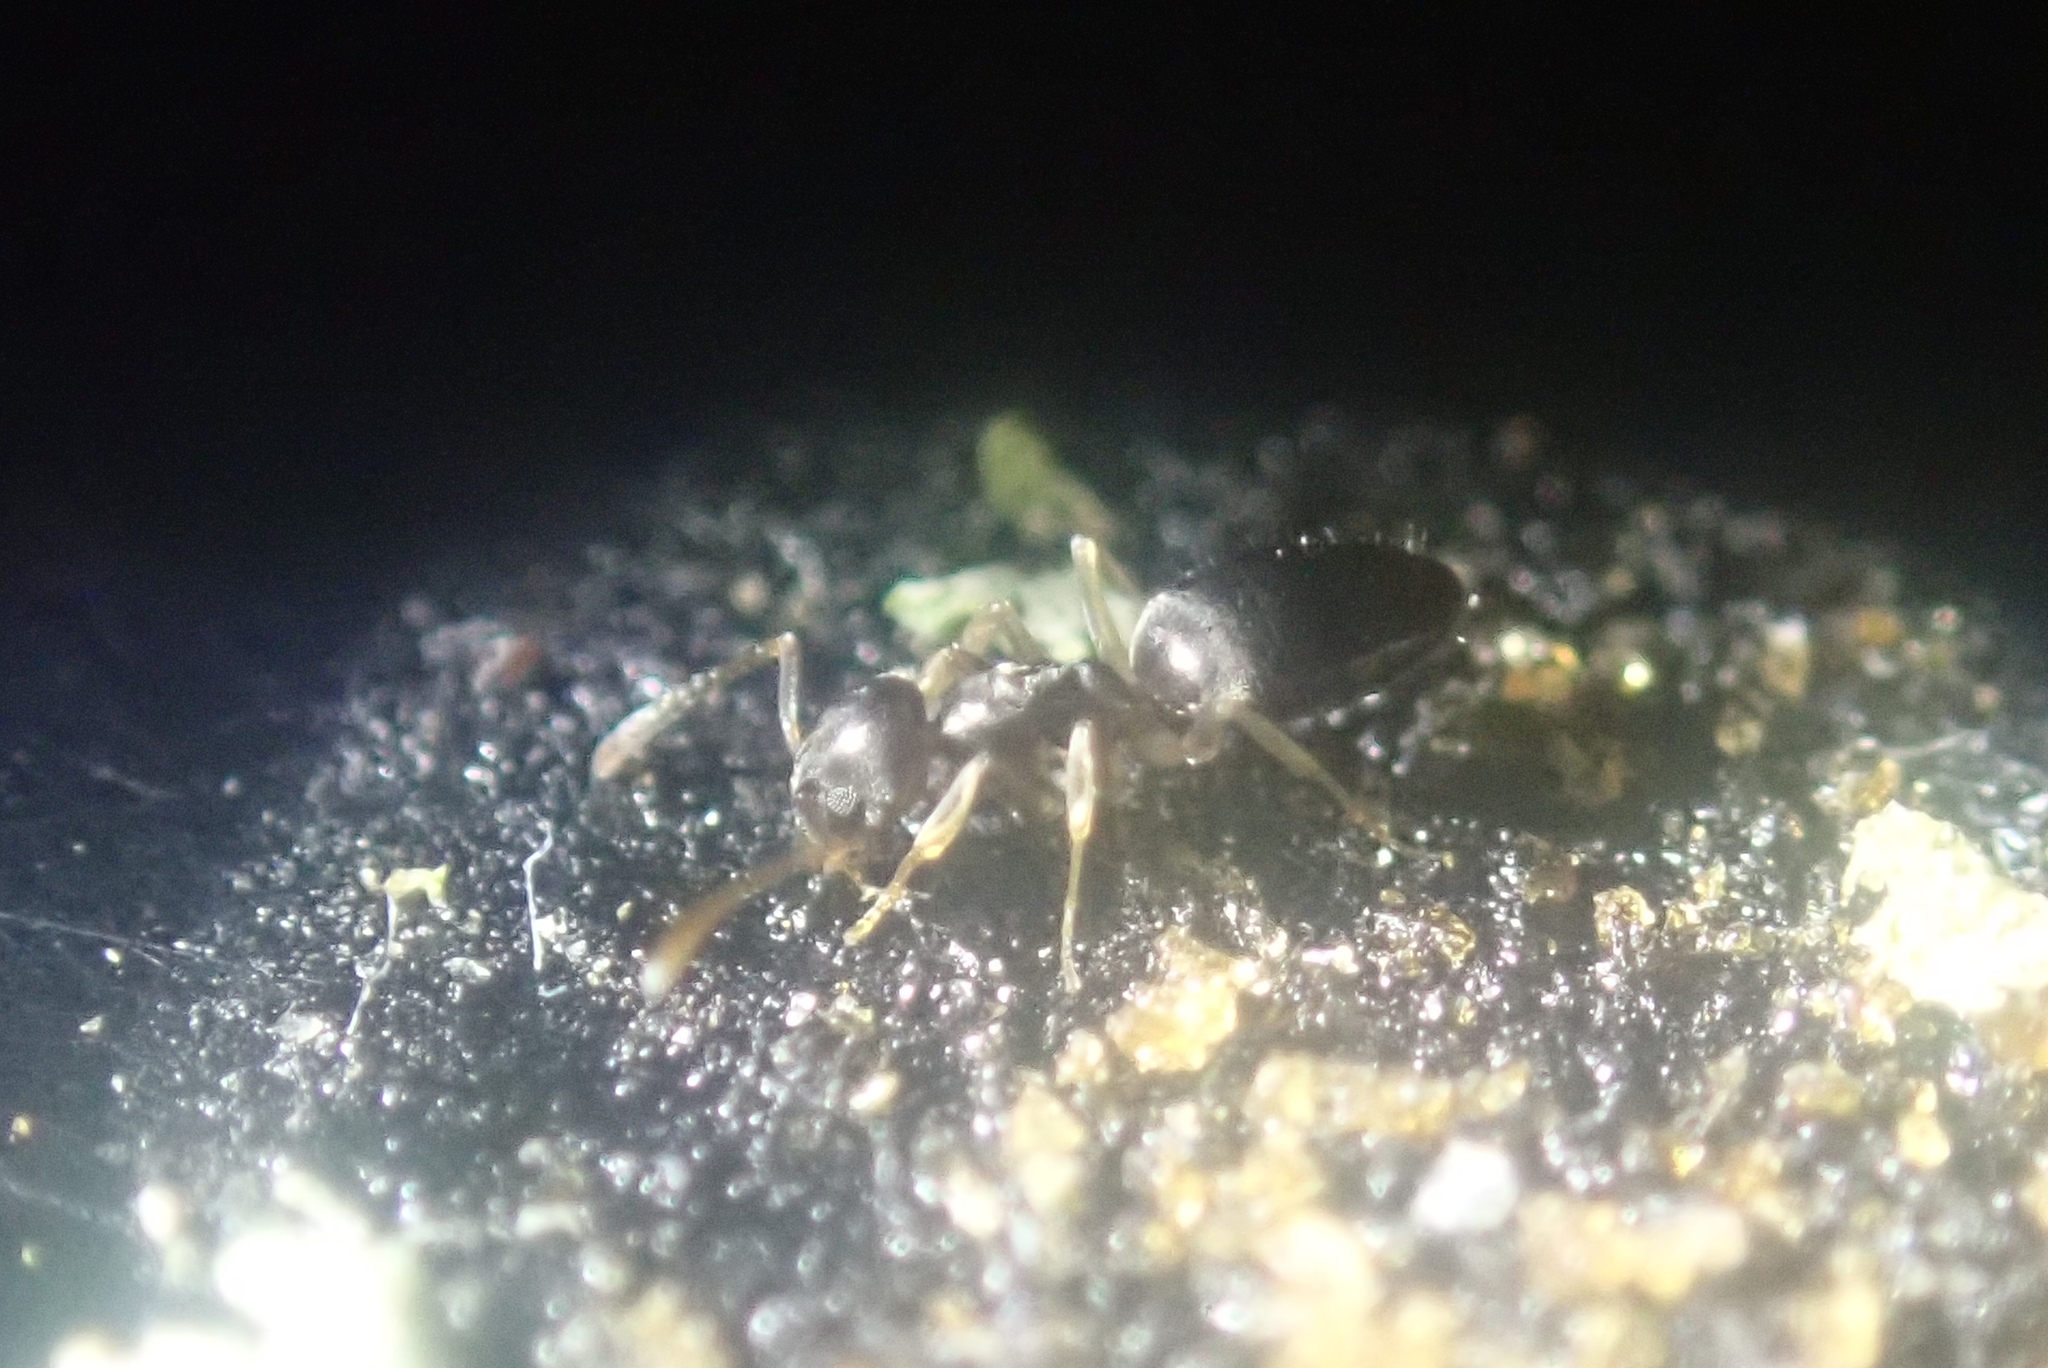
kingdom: Animalia
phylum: Arthropoda
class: Insecta
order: Hymenoptera
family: Formicidae
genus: Tapinoma
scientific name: Tapinoma pallipes
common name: Ant
